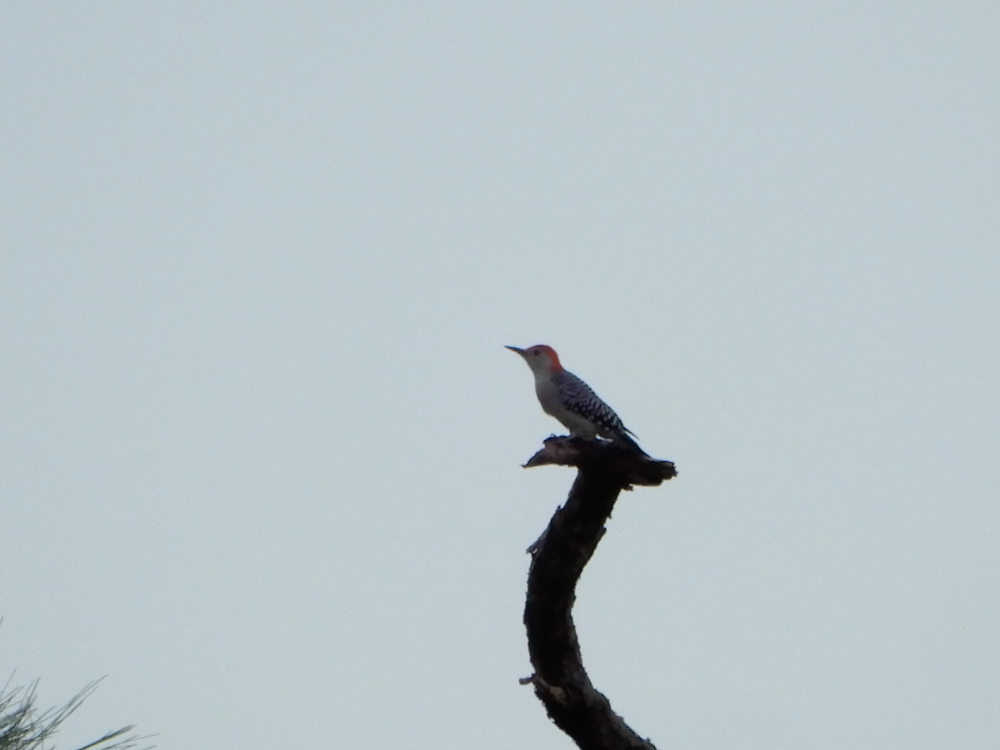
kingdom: Animalia
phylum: Chordata
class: Aves
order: Piciformes
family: Picidae
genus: Melanerpes
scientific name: Melanerpes carolinus
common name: Red-bellied woodpecker
